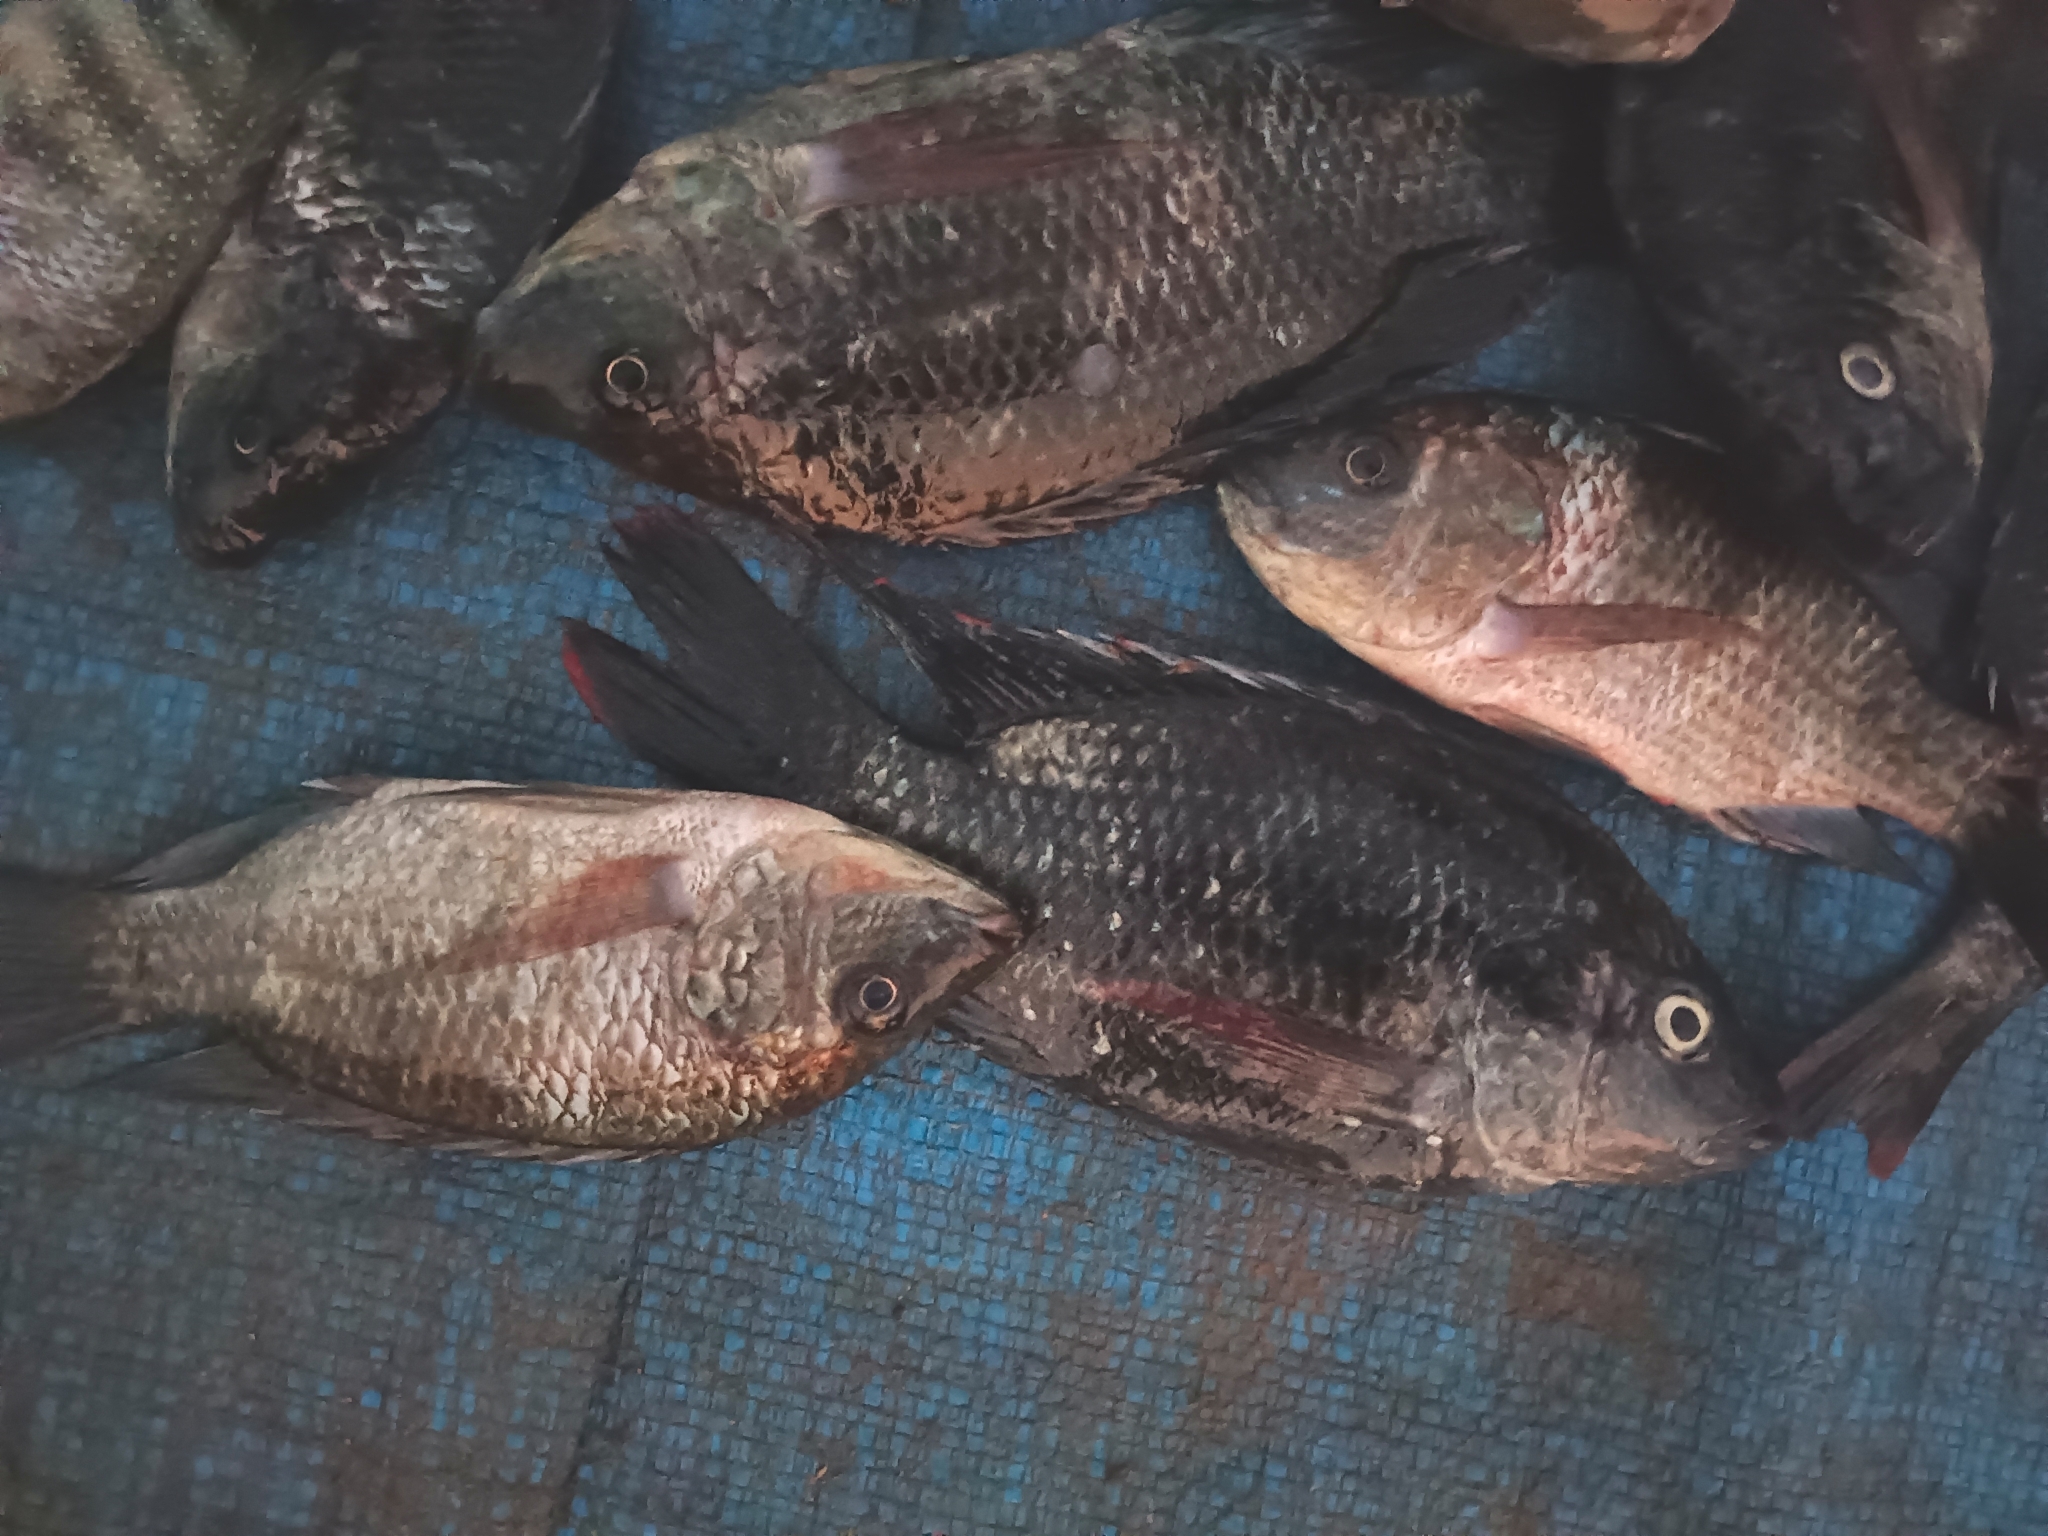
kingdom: Animalia
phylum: Chordata
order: Perciformes
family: Cichlidae
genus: Oreochromis
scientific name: Oreochromis mossambicus
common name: Mozambique tilapia
